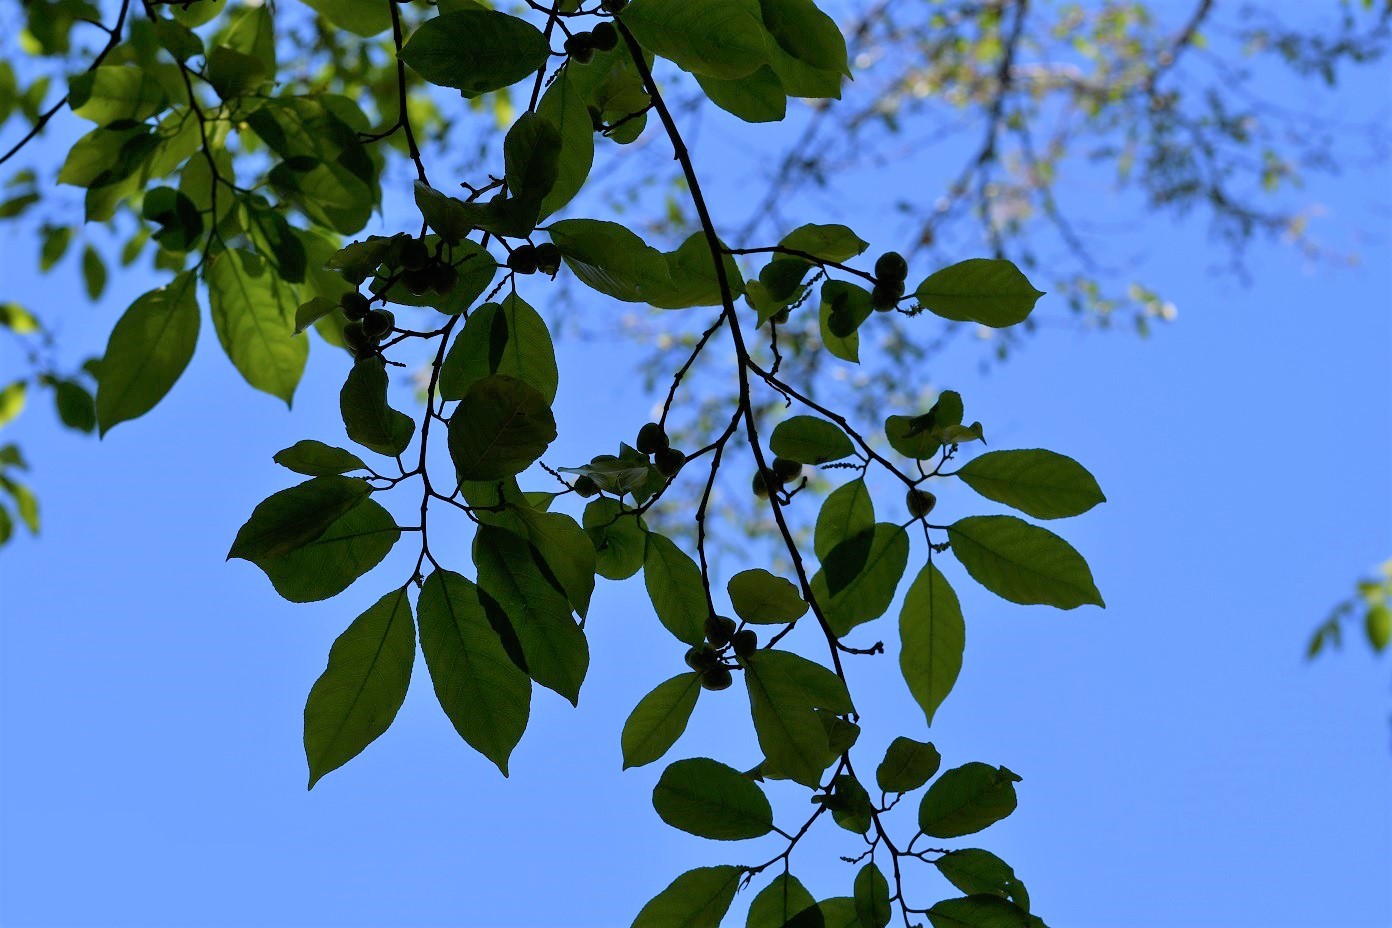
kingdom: Plantae
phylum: Tracheophyta
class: Magnoliopsida
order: Malpighiales
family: Euphorbiaceae
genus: Sebastiania
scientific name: Sebastiania glandulosa
